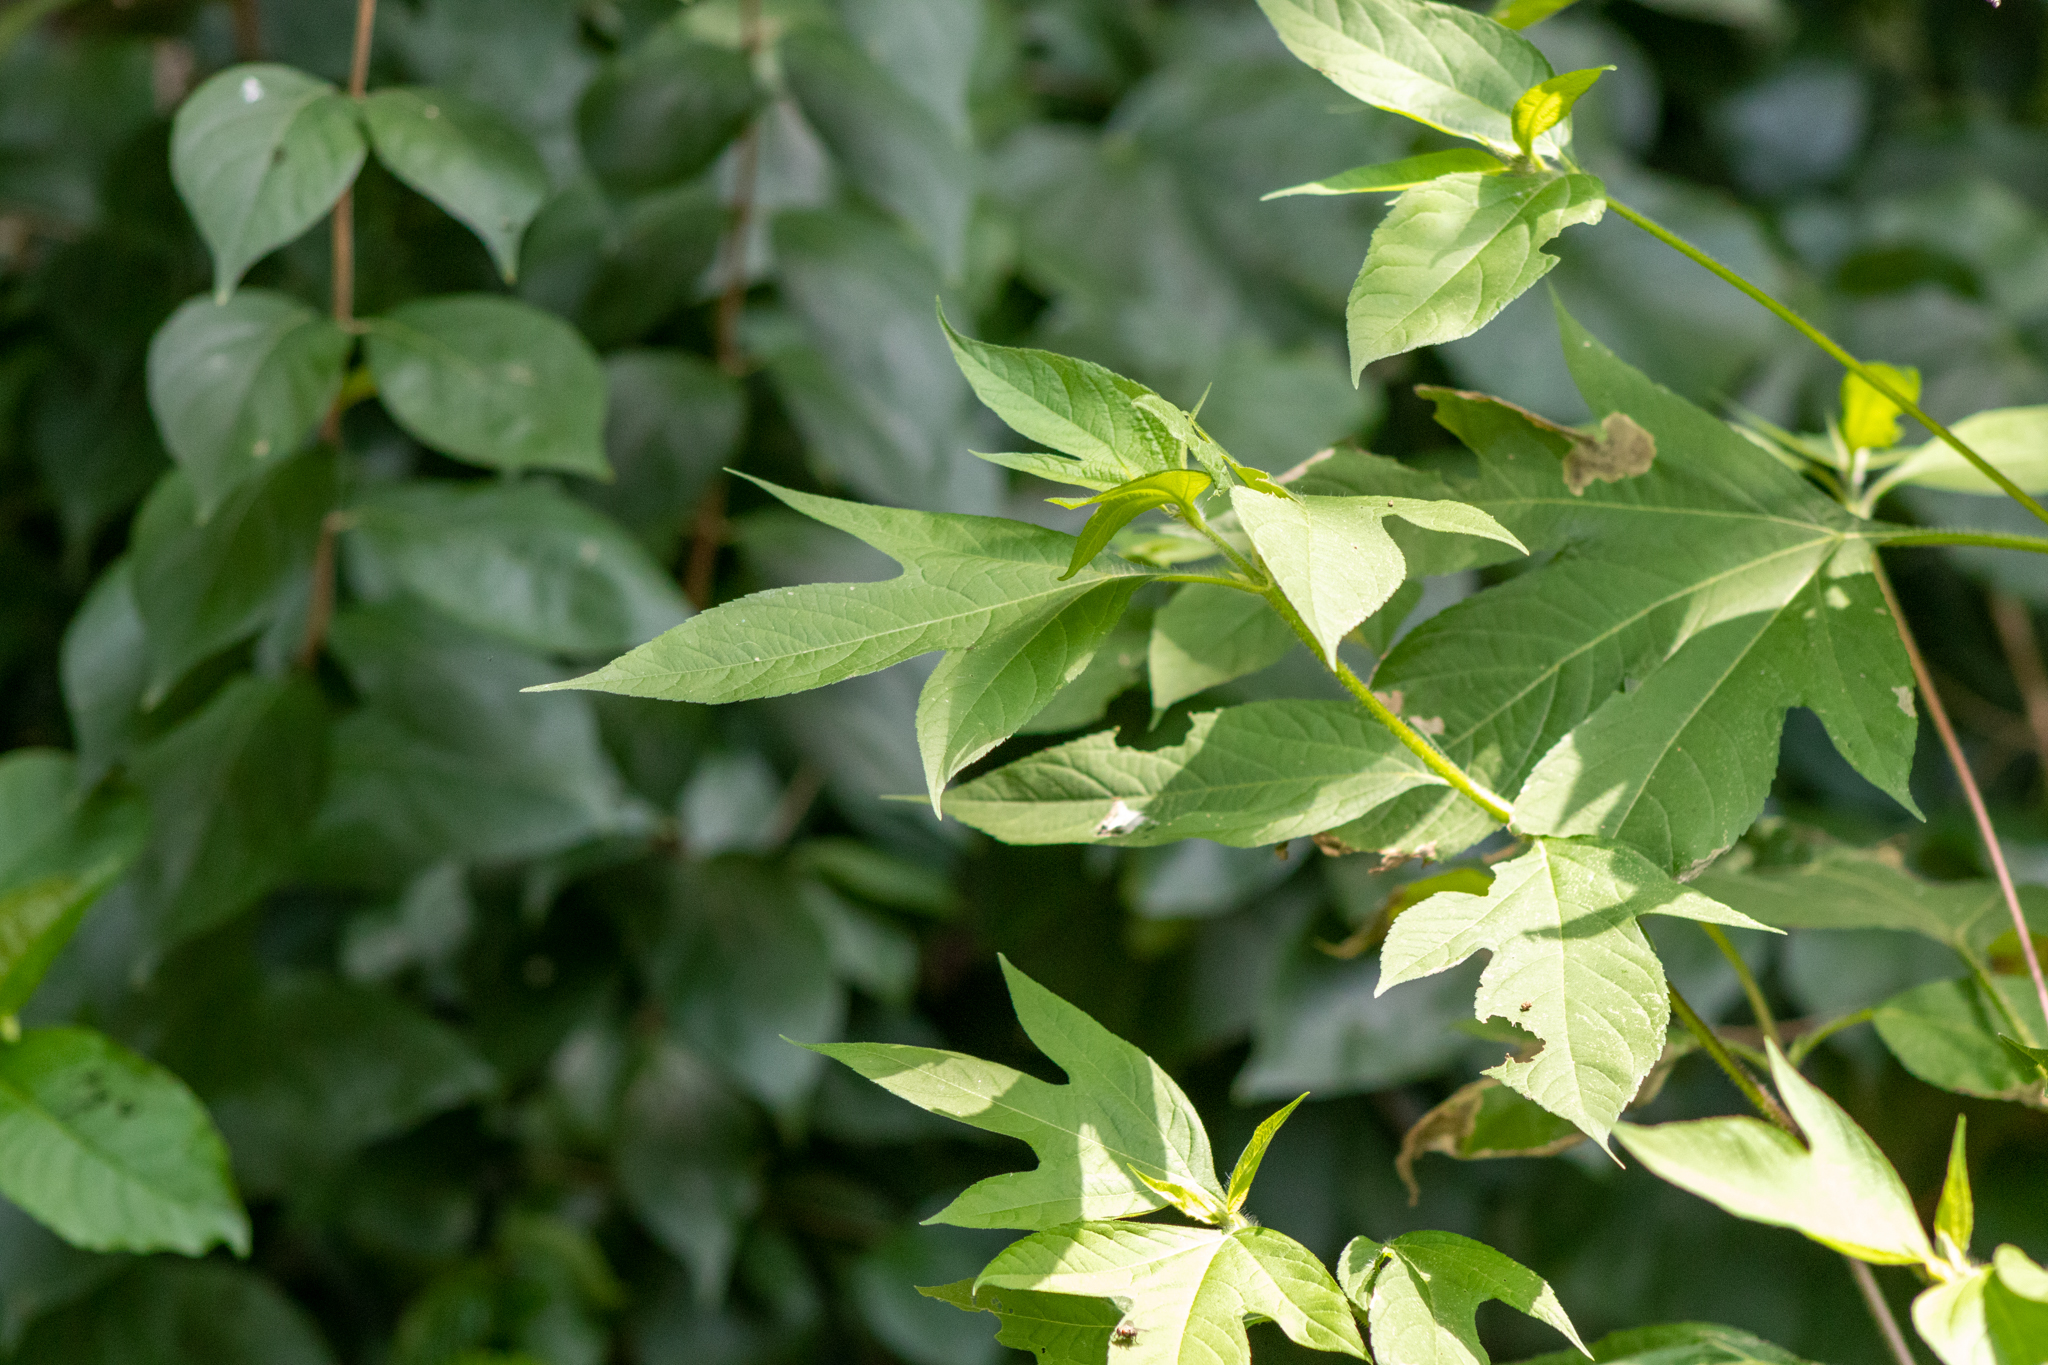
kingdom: Plantae
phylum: Tracheophyta
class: Magnoliopsida
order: Asterales
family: Asteraceae
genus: Ambrosia
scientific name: Ambrosia trifida
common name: Giant ragweed
